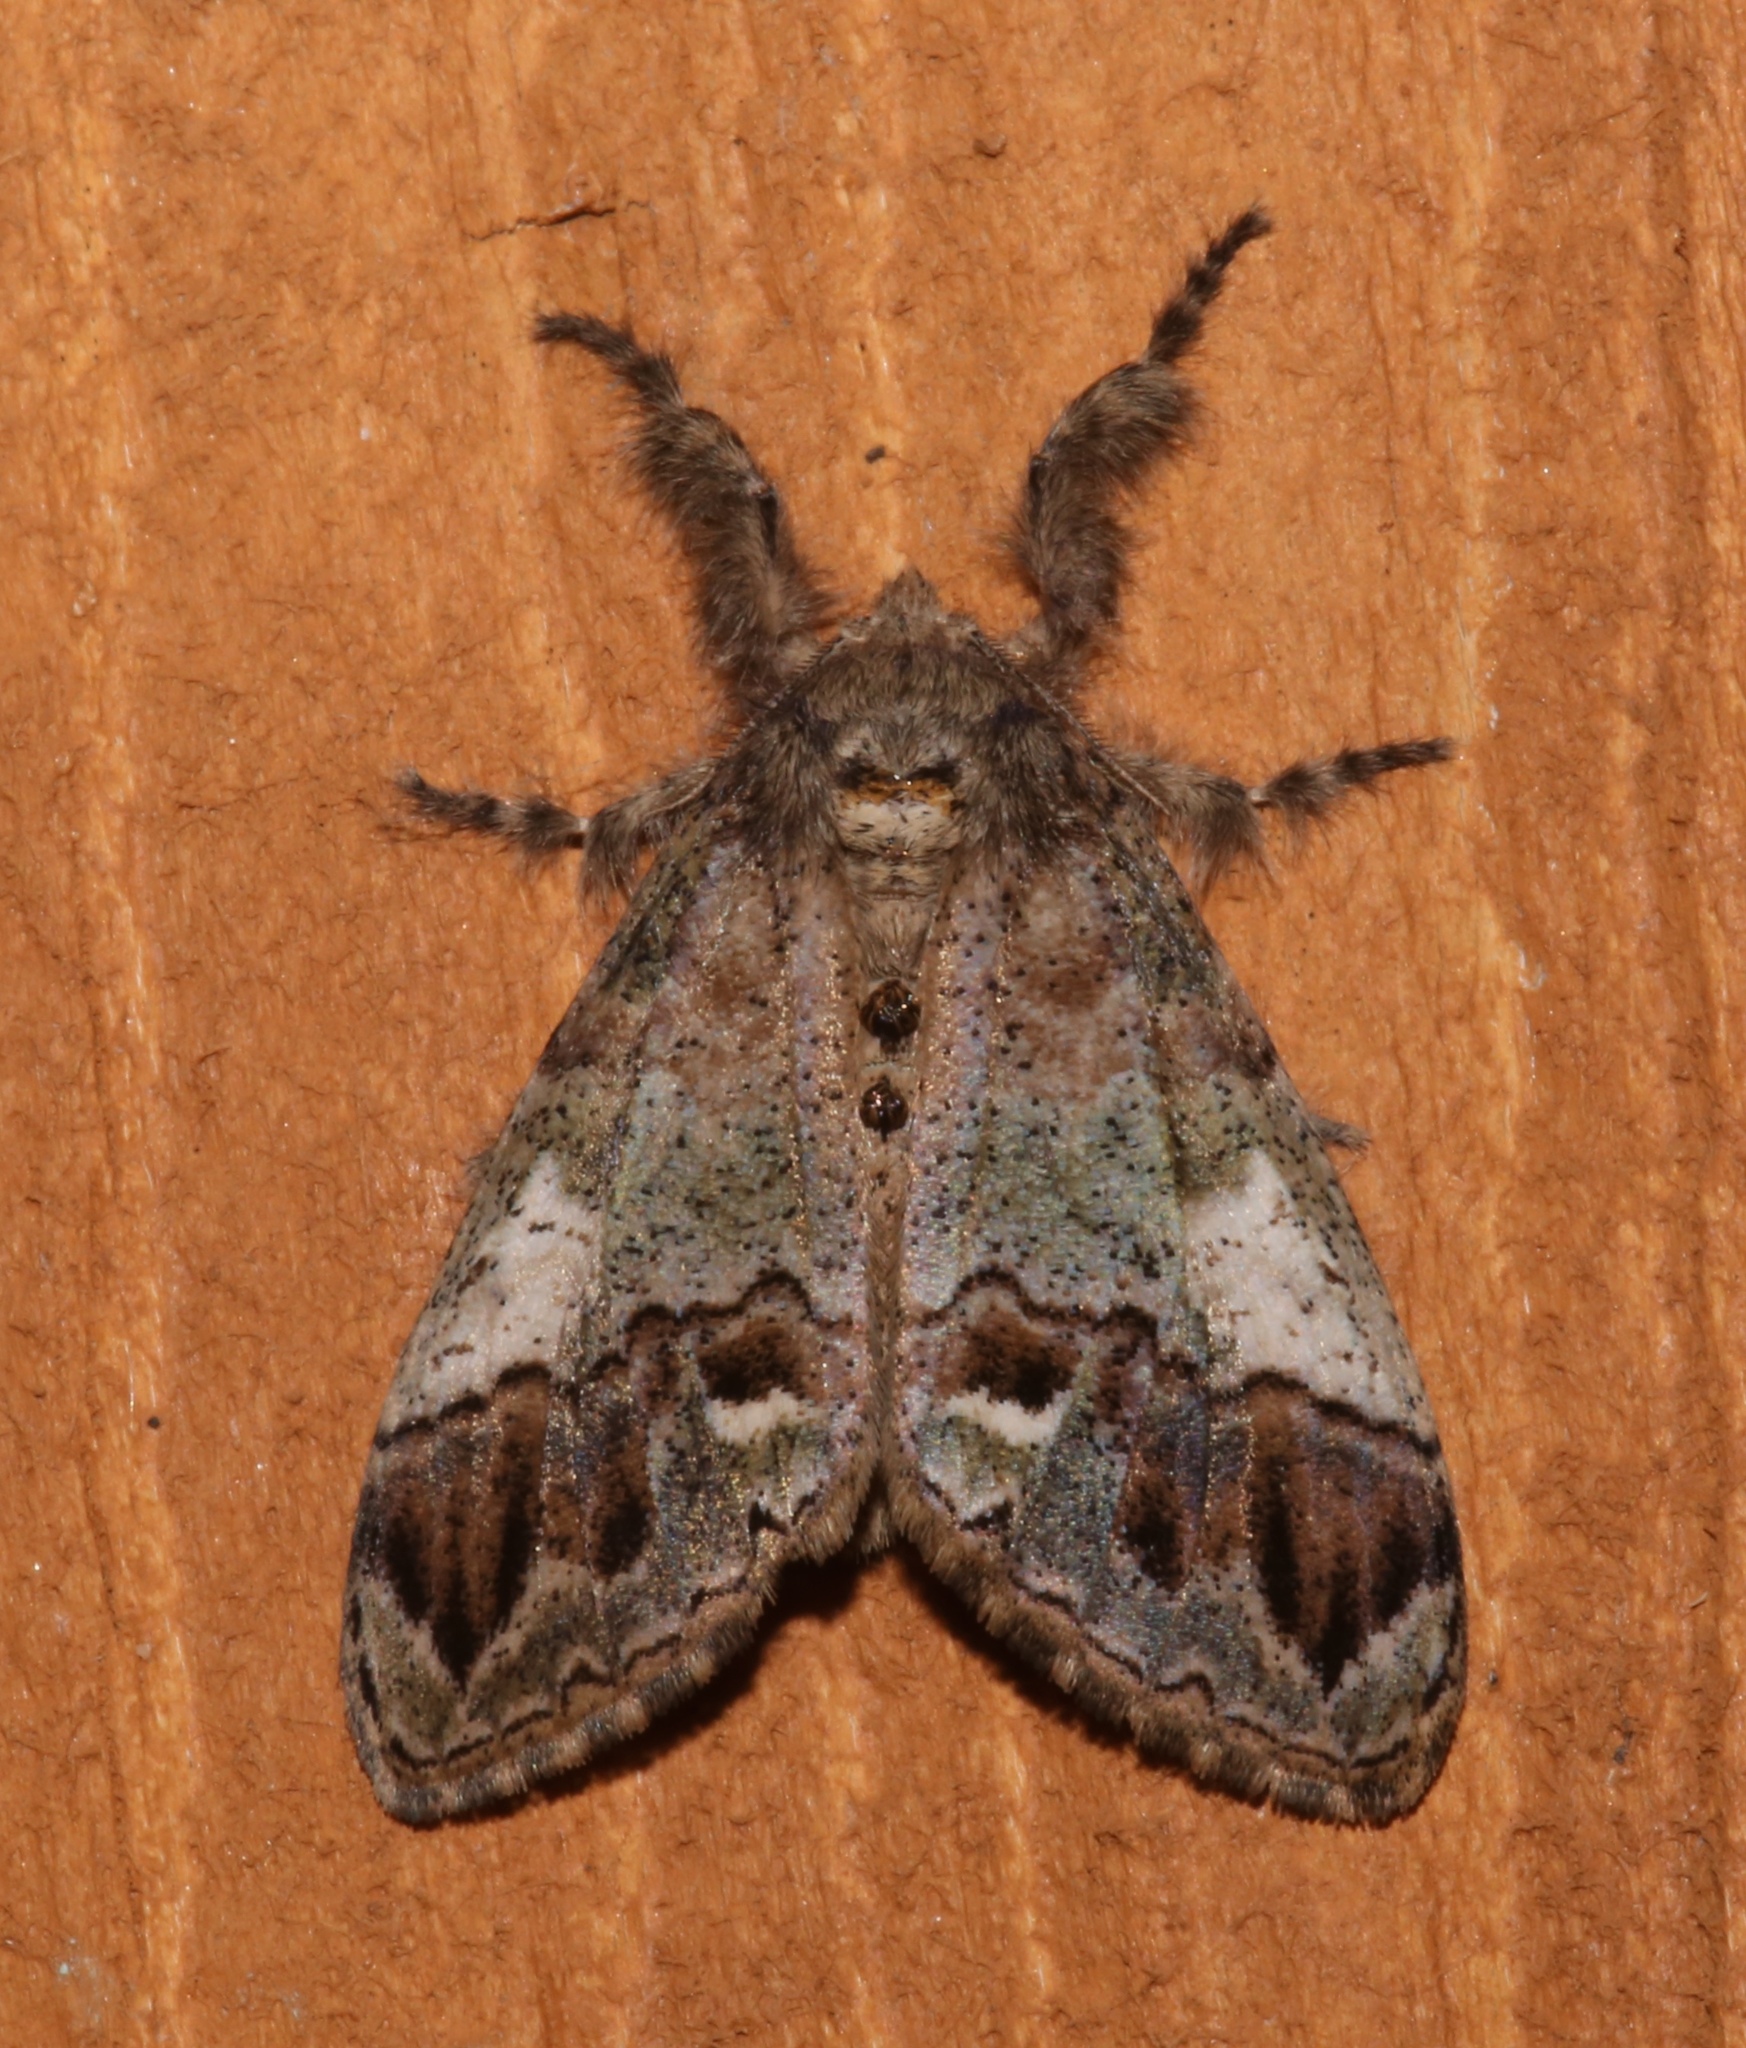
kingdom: Animalia
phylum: Arthropoda
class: Insecta
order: Lepidoptera
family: Erebidae
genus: Dasychira
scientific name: Dasychira basiflava
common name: Yellow-based tussock moth
